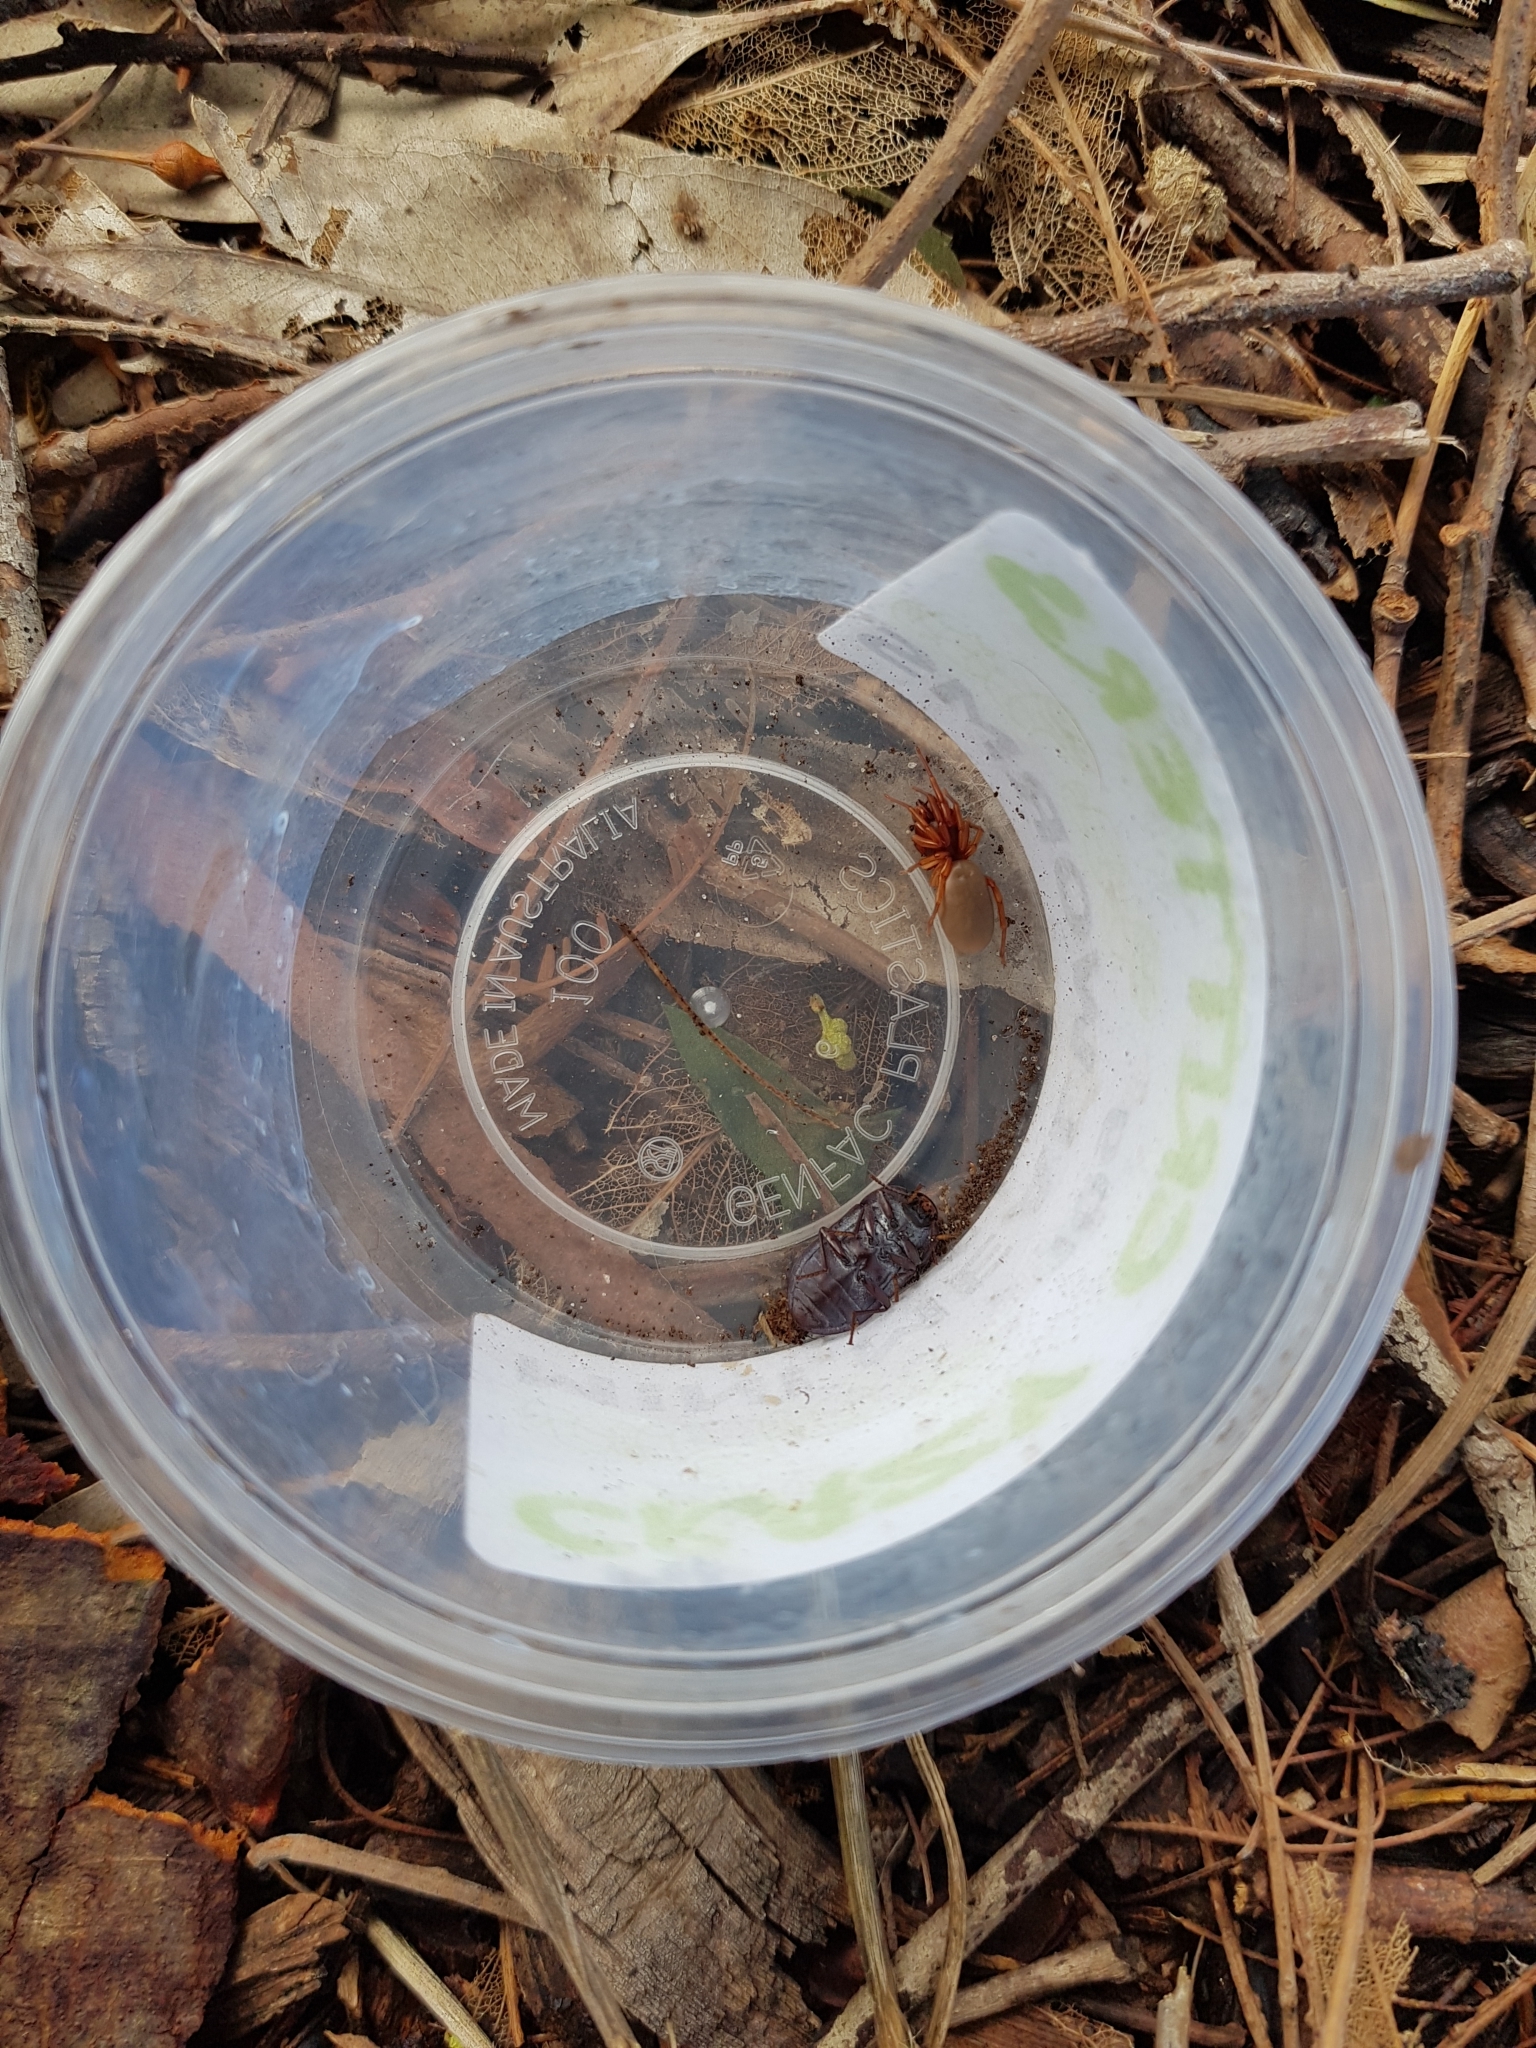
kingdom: Animalia
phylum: Arthropoda
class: Arachnida
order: Araneae
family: Dysderidae
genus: Dysdera
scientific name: Dysdera crocata
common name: Woodlouse spider
